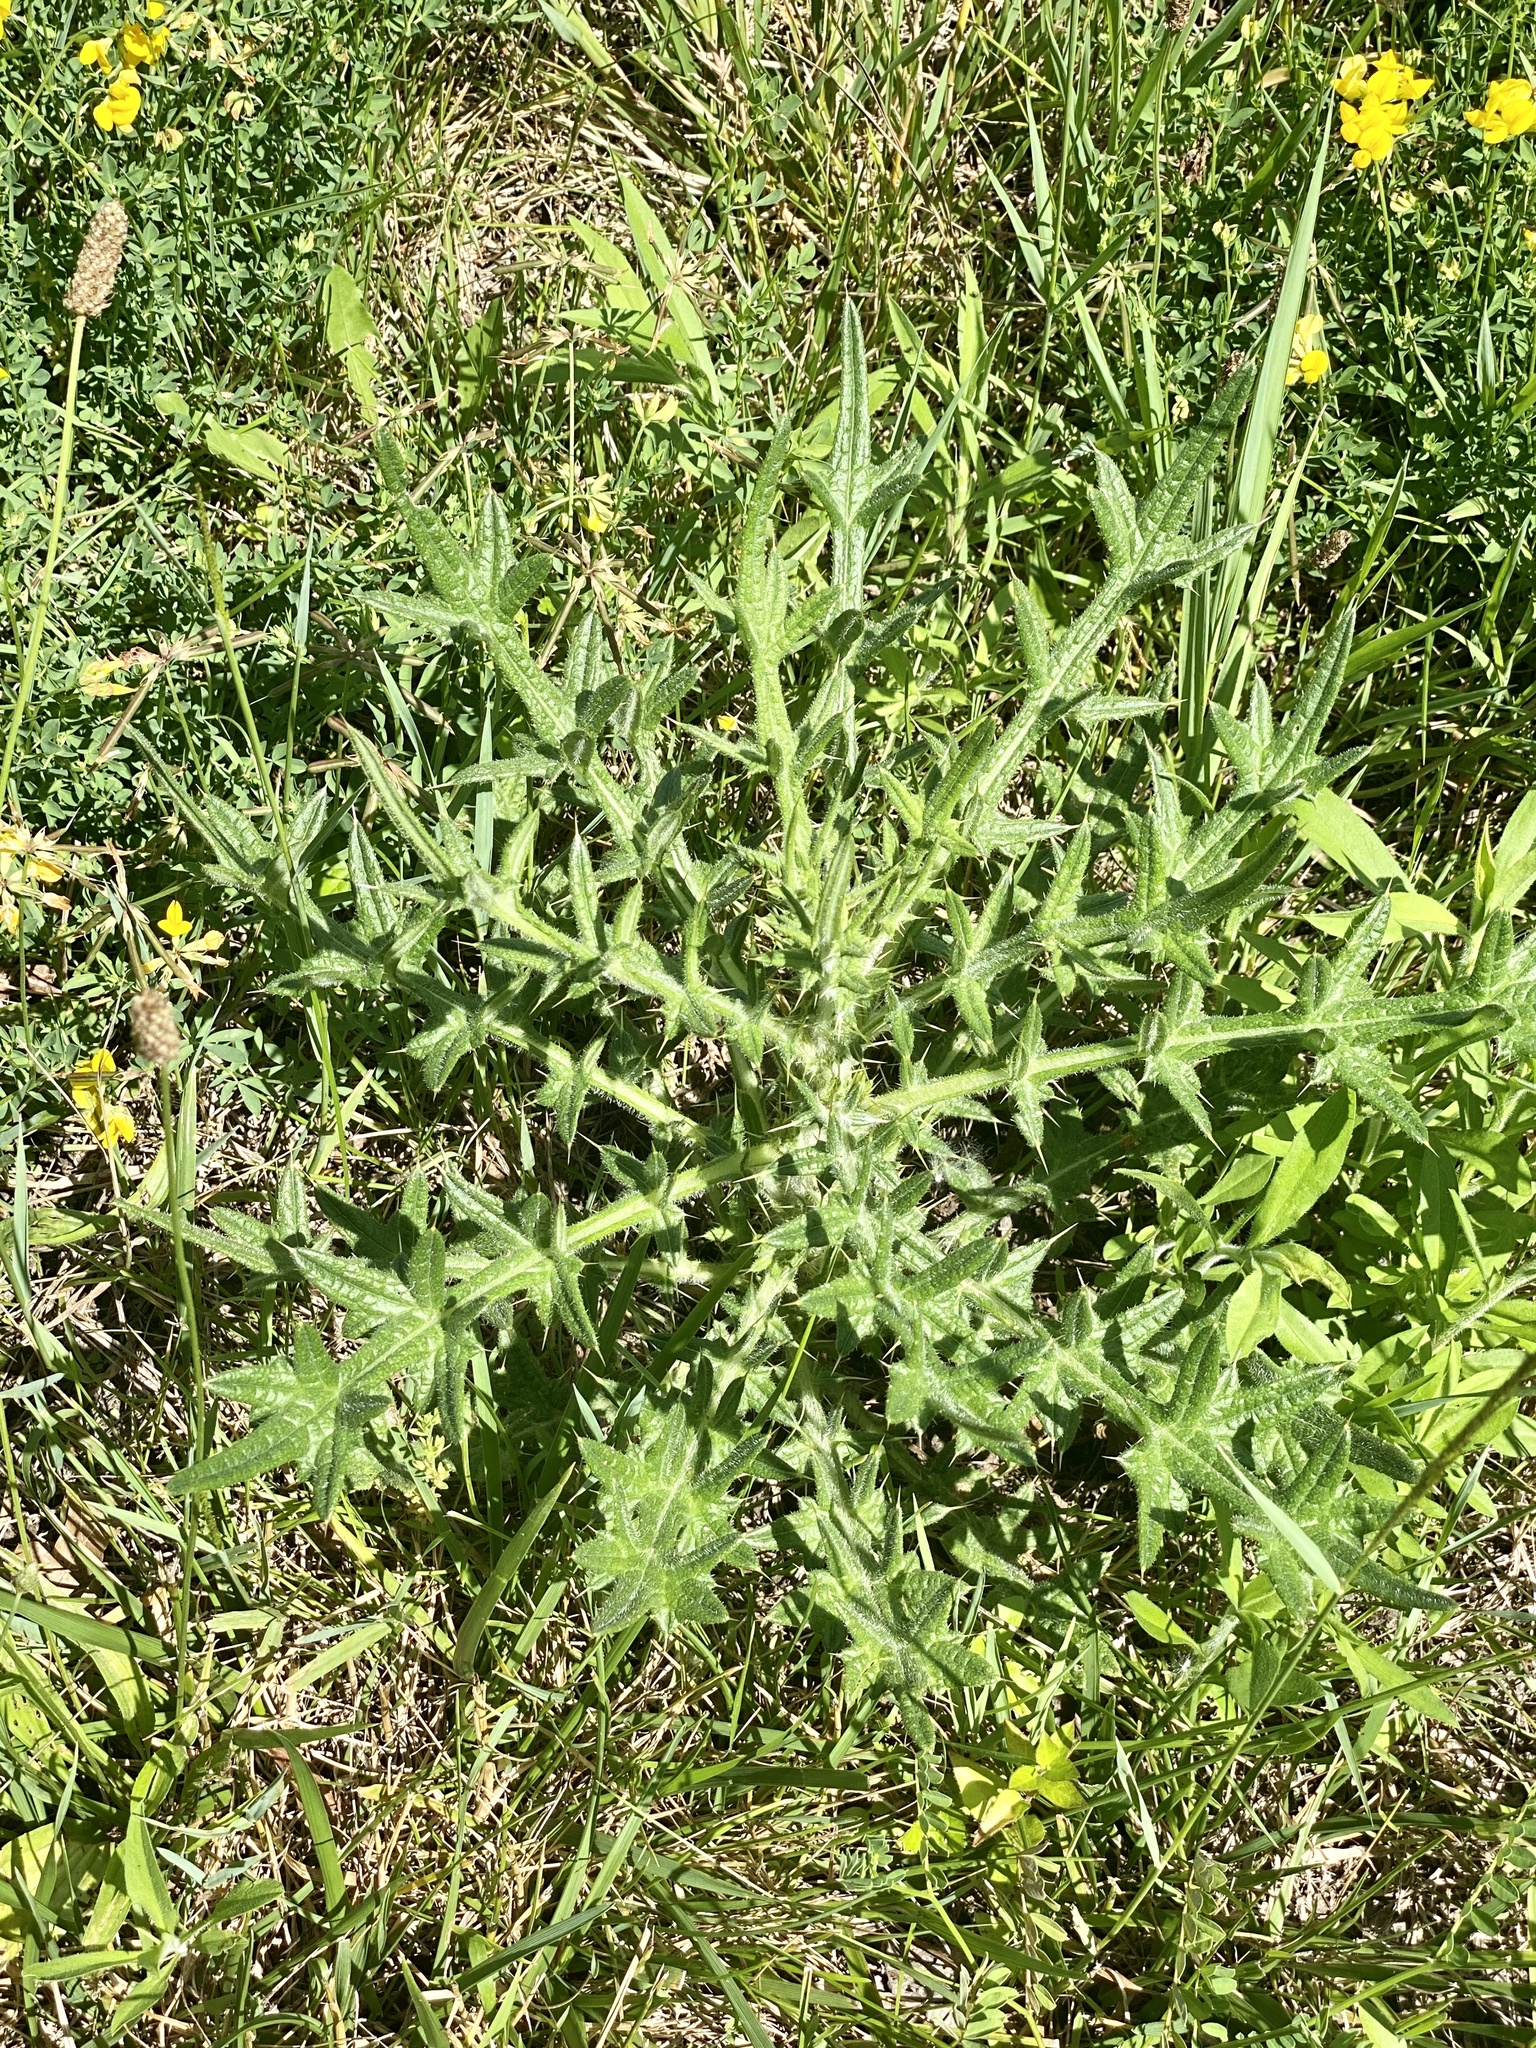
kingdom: Plantae
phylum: Tracheophyta
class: Magnoliopsida
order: Asterales
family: Asteraceae
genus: Cirsium
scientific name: Cirsium vulgare
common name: Bull thistle
